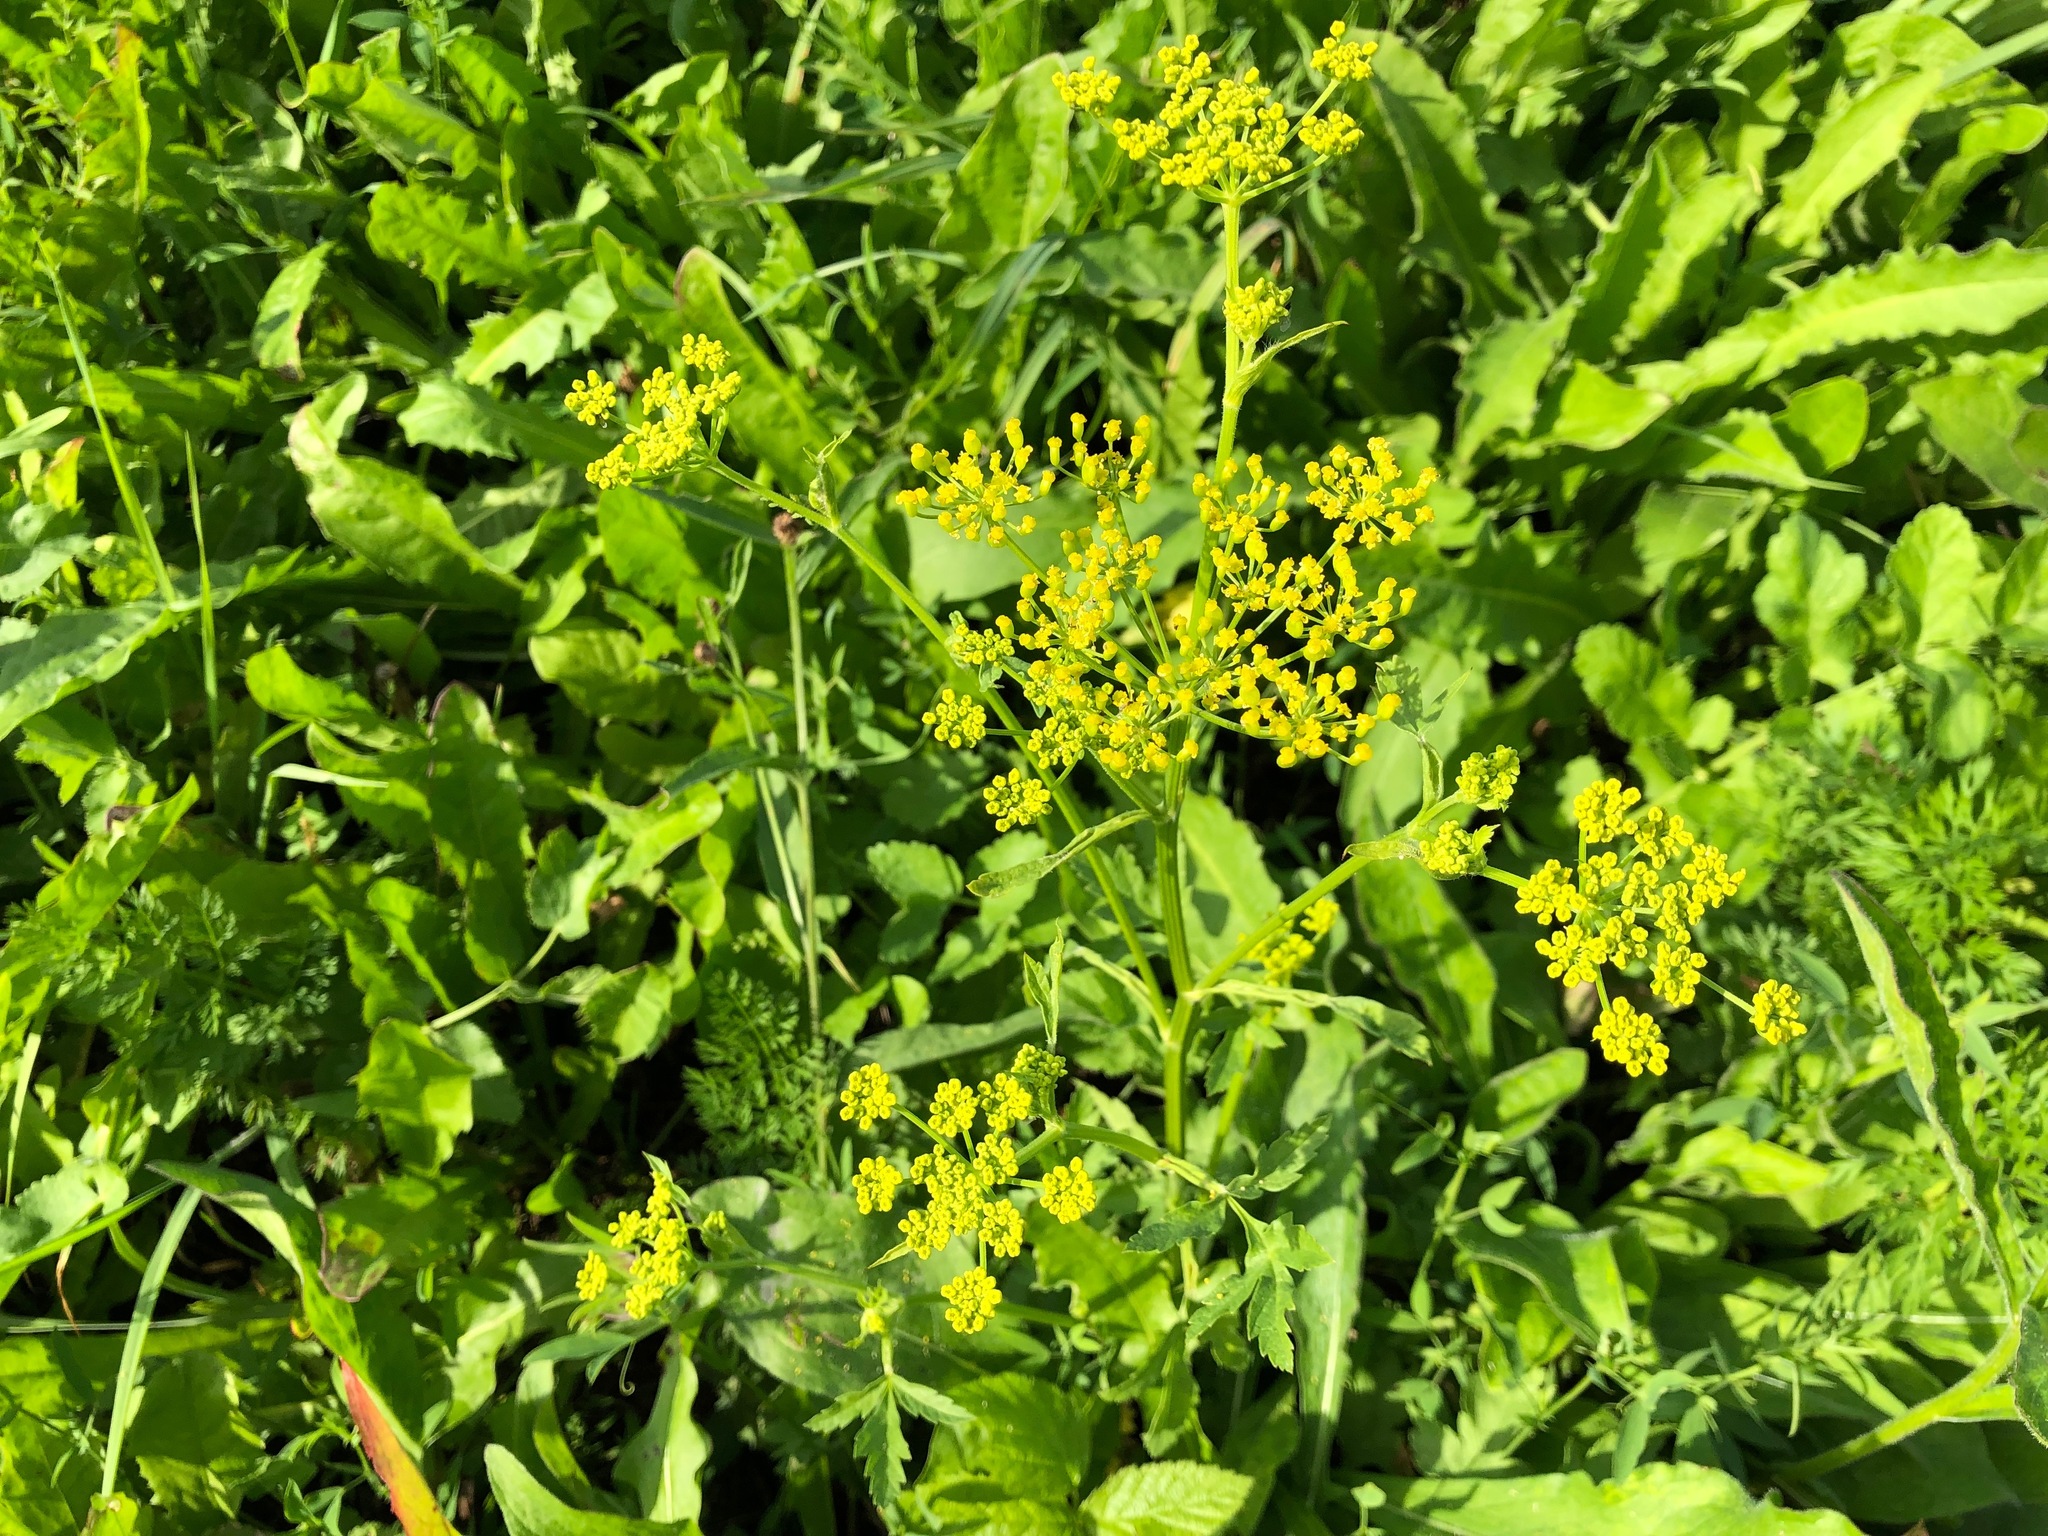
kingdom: Plantae
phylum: Tracheophyta
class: Magnoliopsida
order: Apiales
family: Apiaceae
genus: Pastinaca
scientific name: Pastinaca sativa
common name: Wild parsnip
